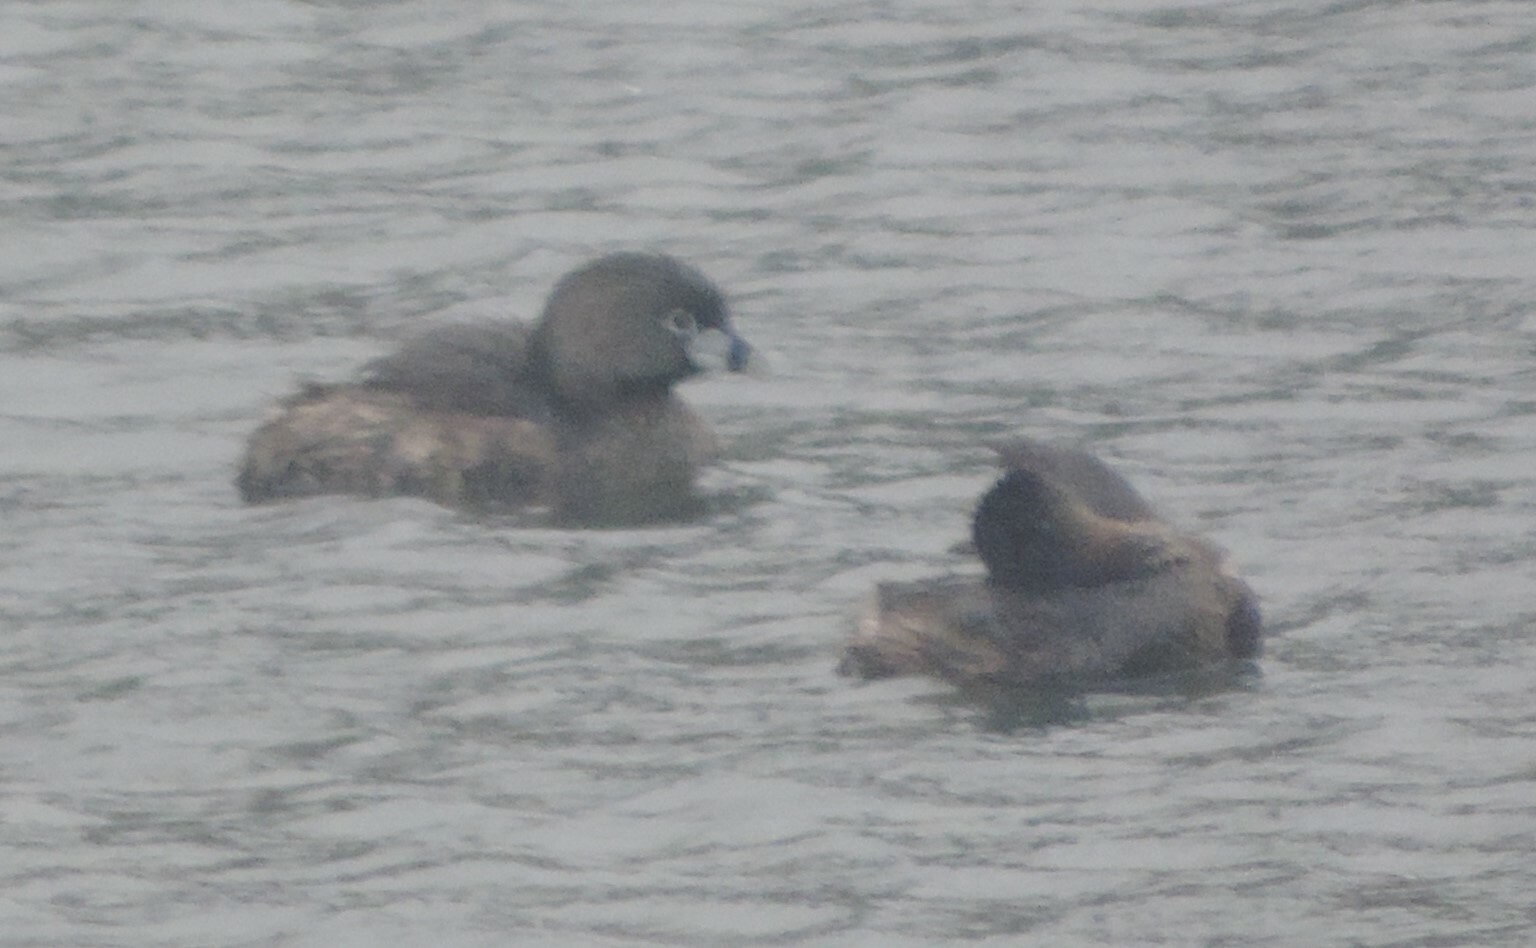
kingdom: Animalia
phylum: Chordata
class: Aves
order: Podicipediformes
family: Podicipedidae
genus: Podilymbus
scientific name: Podilymbus podiceps
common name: Pied-billed grebe
